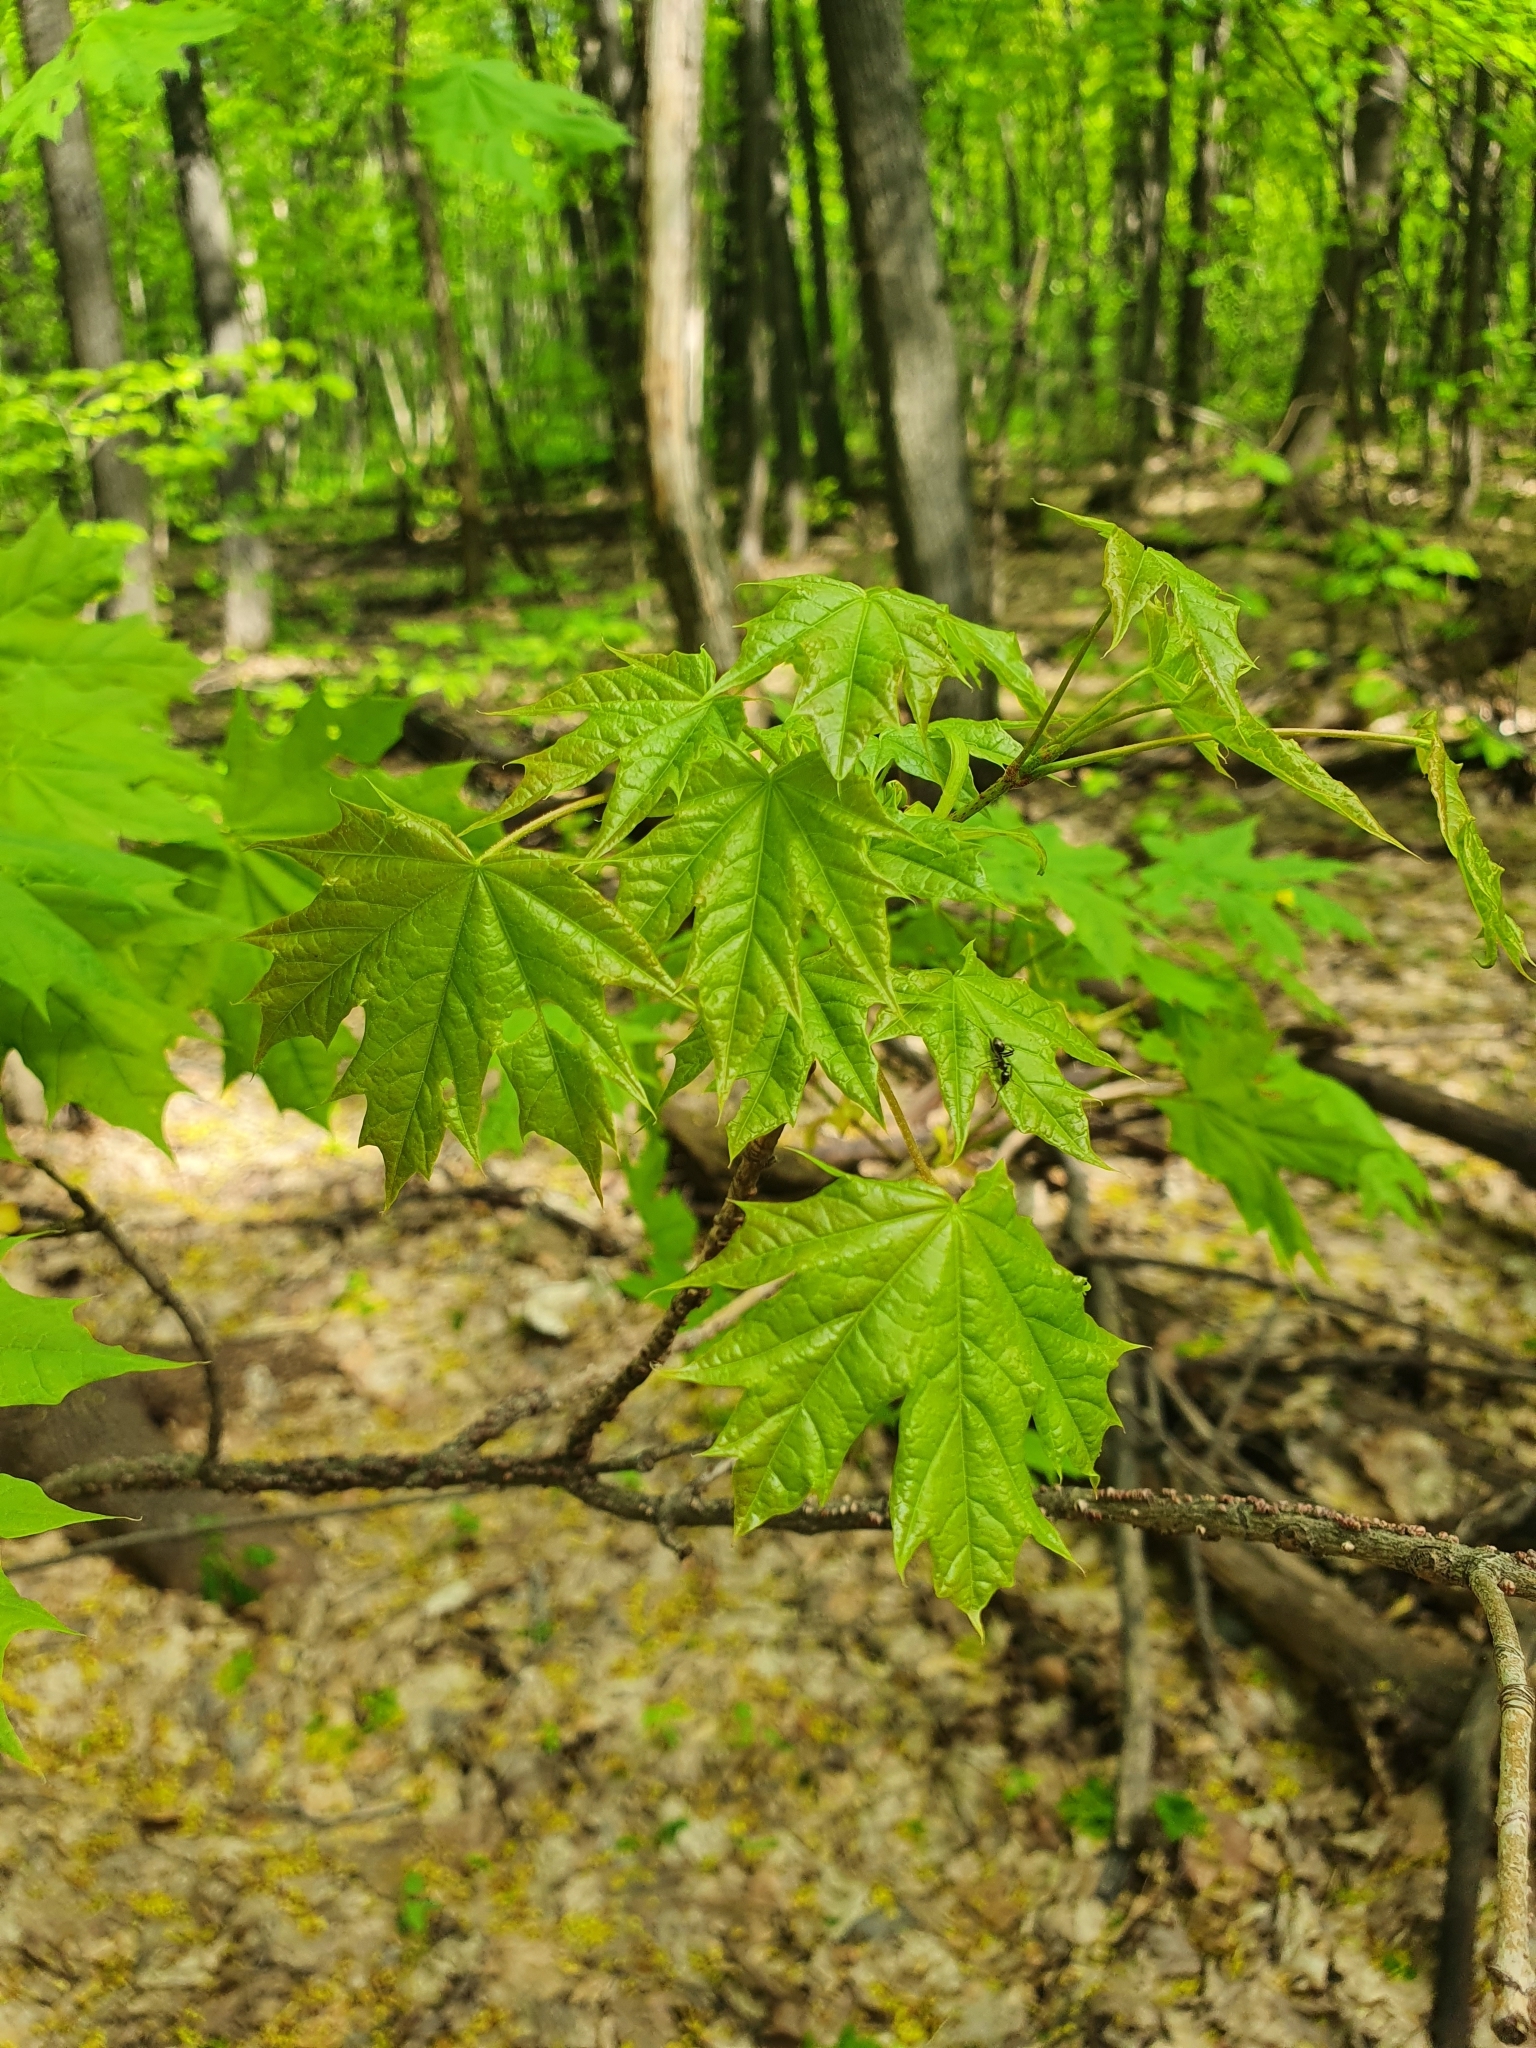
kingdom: Plantae
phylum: Tracheophyta
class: Magnoliopsida
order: Sapindales
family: Sapindaceae
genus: Acer
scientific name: Acer platanoides
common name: Norway maple
